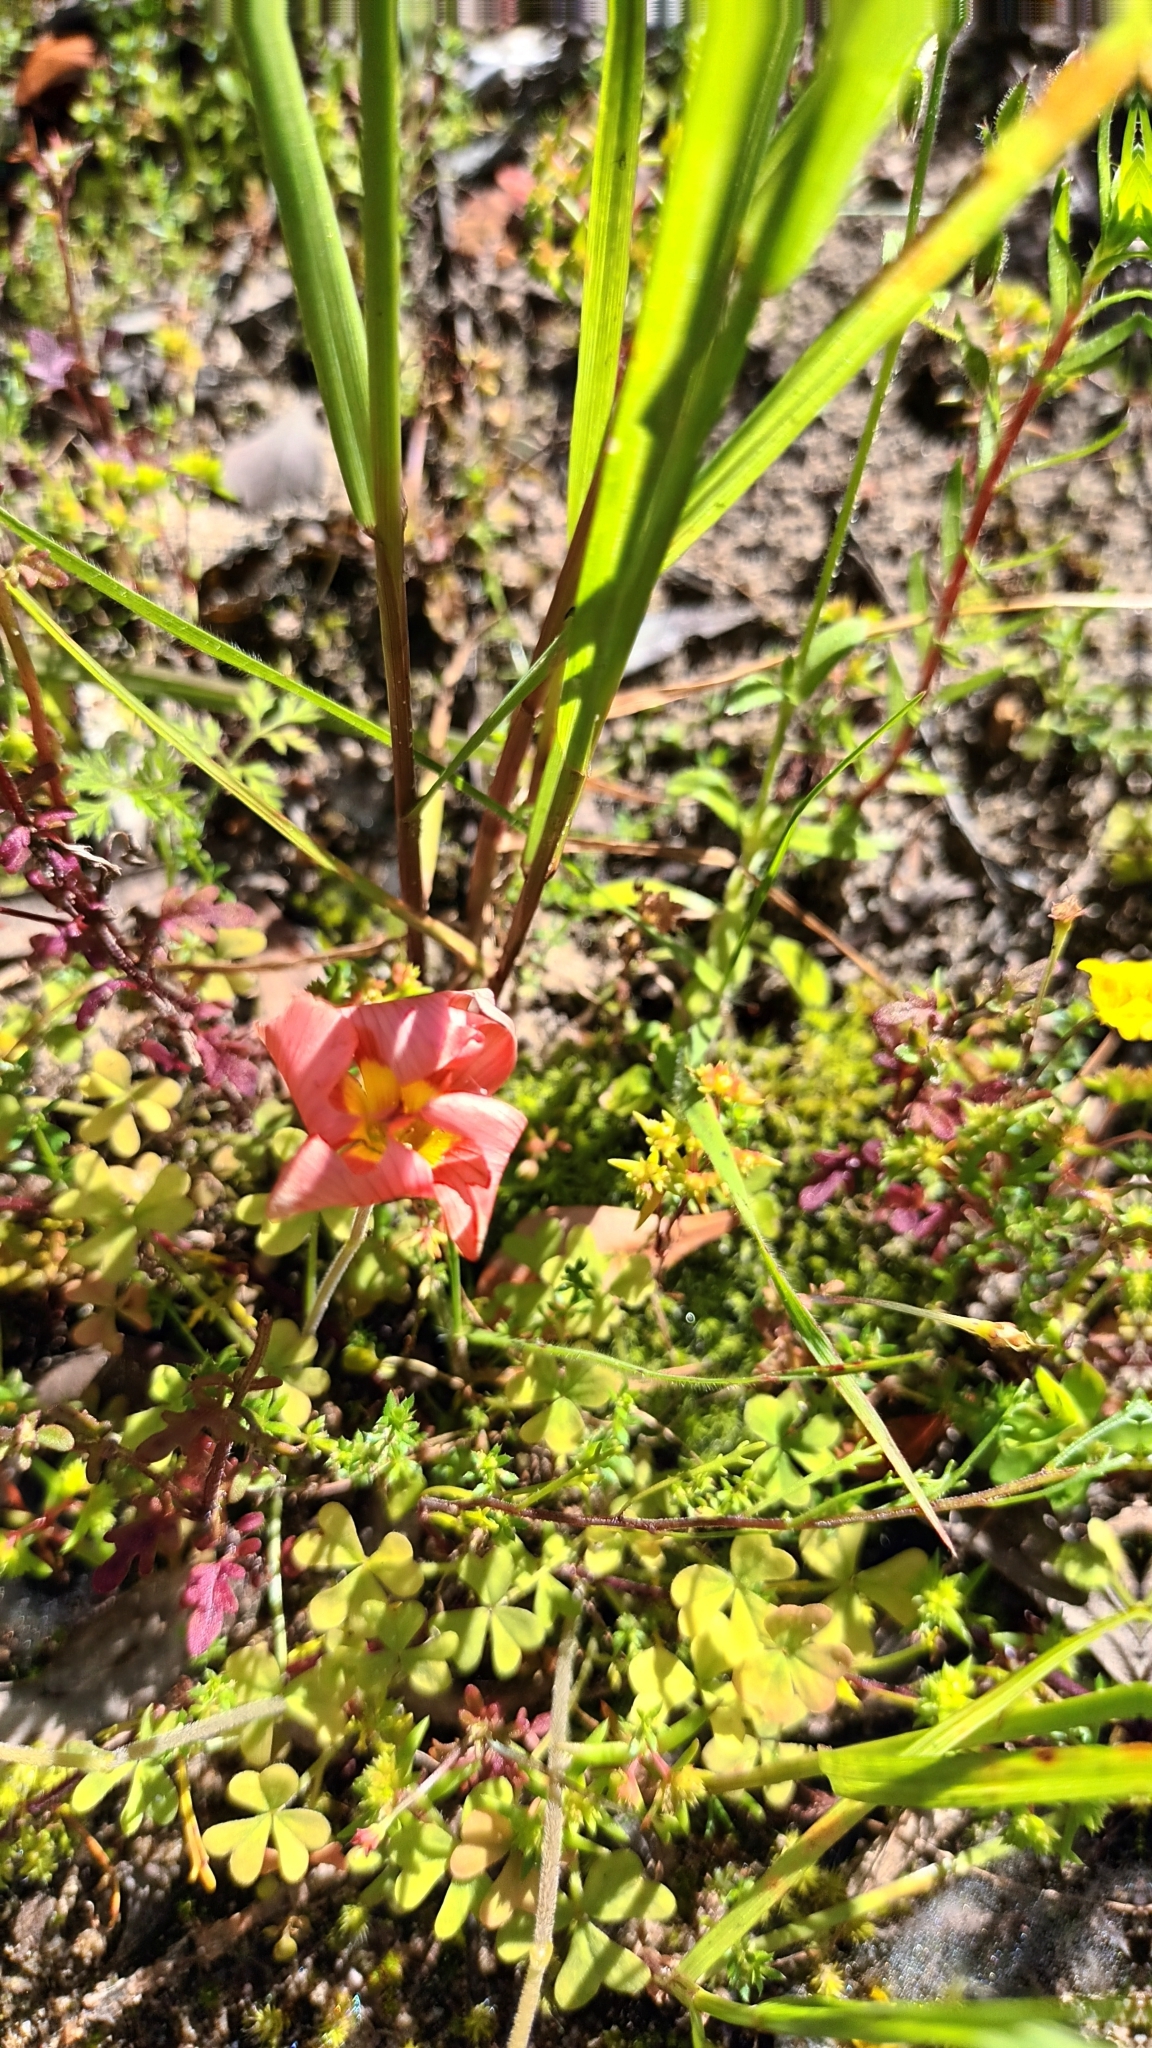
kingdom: Plantae
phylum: Tracheophyta
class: Magnoliopsida
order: Oxalidales
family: Oxalidaceae
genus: Oxalis
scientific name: Oxalis obtusa
